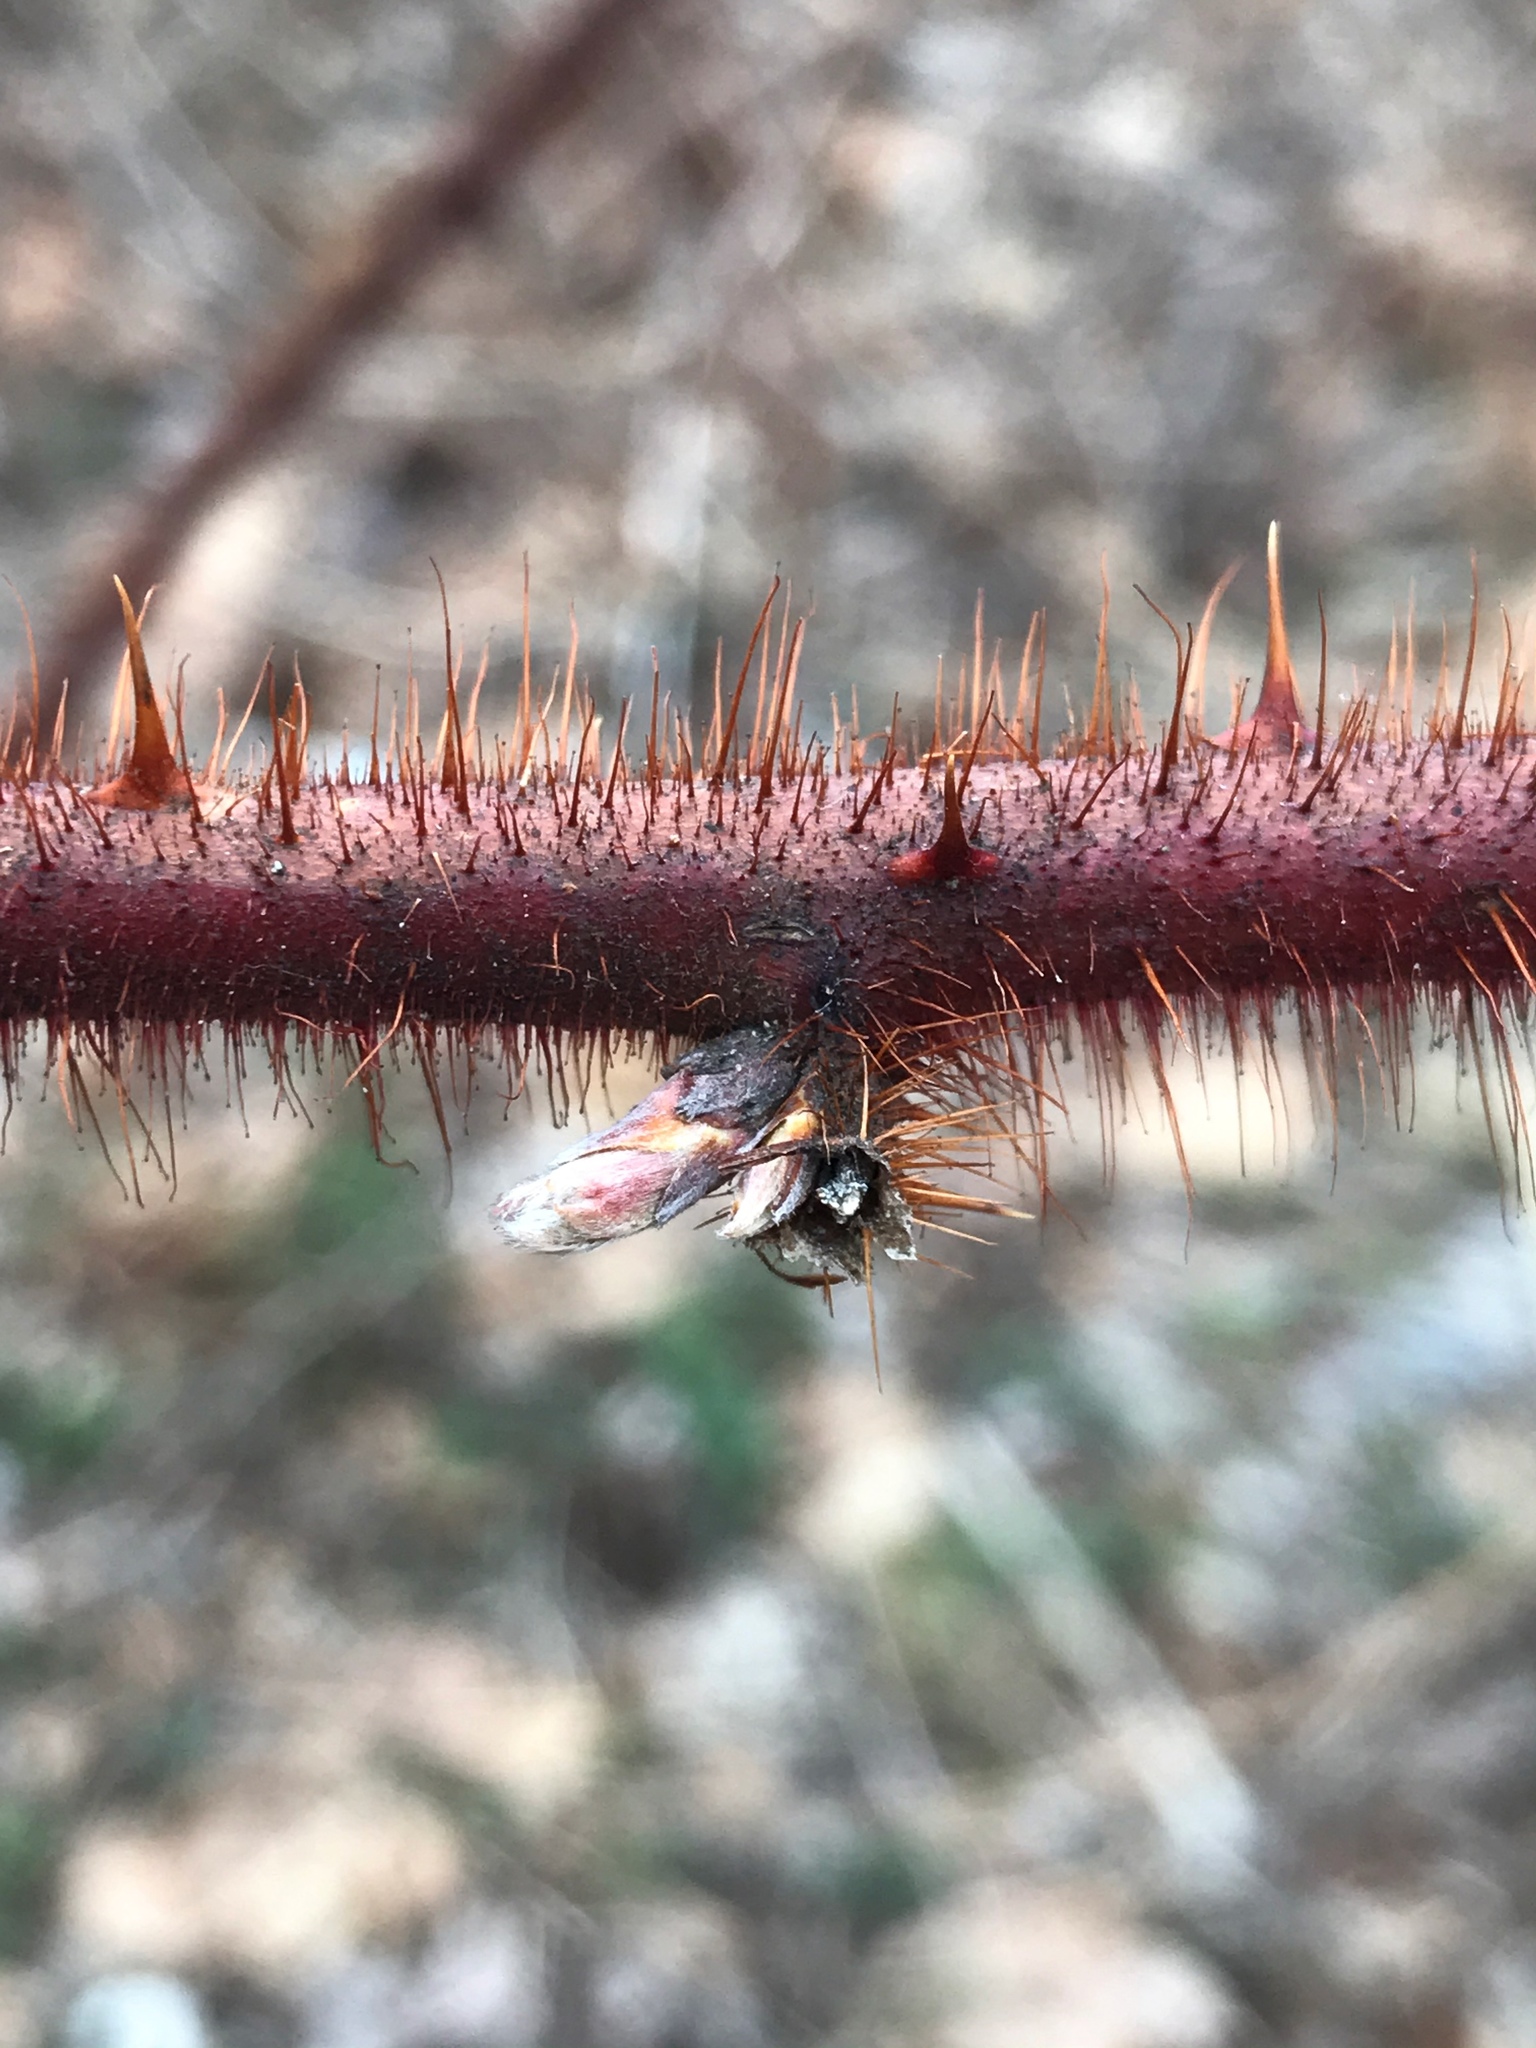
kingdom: Plantae
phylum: Tracheophyta
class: Magnoliopsida
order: Rosales
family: Rosaceae
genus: Rubus
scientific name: Rubus phoenicolasius
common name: Japanese wineberry
